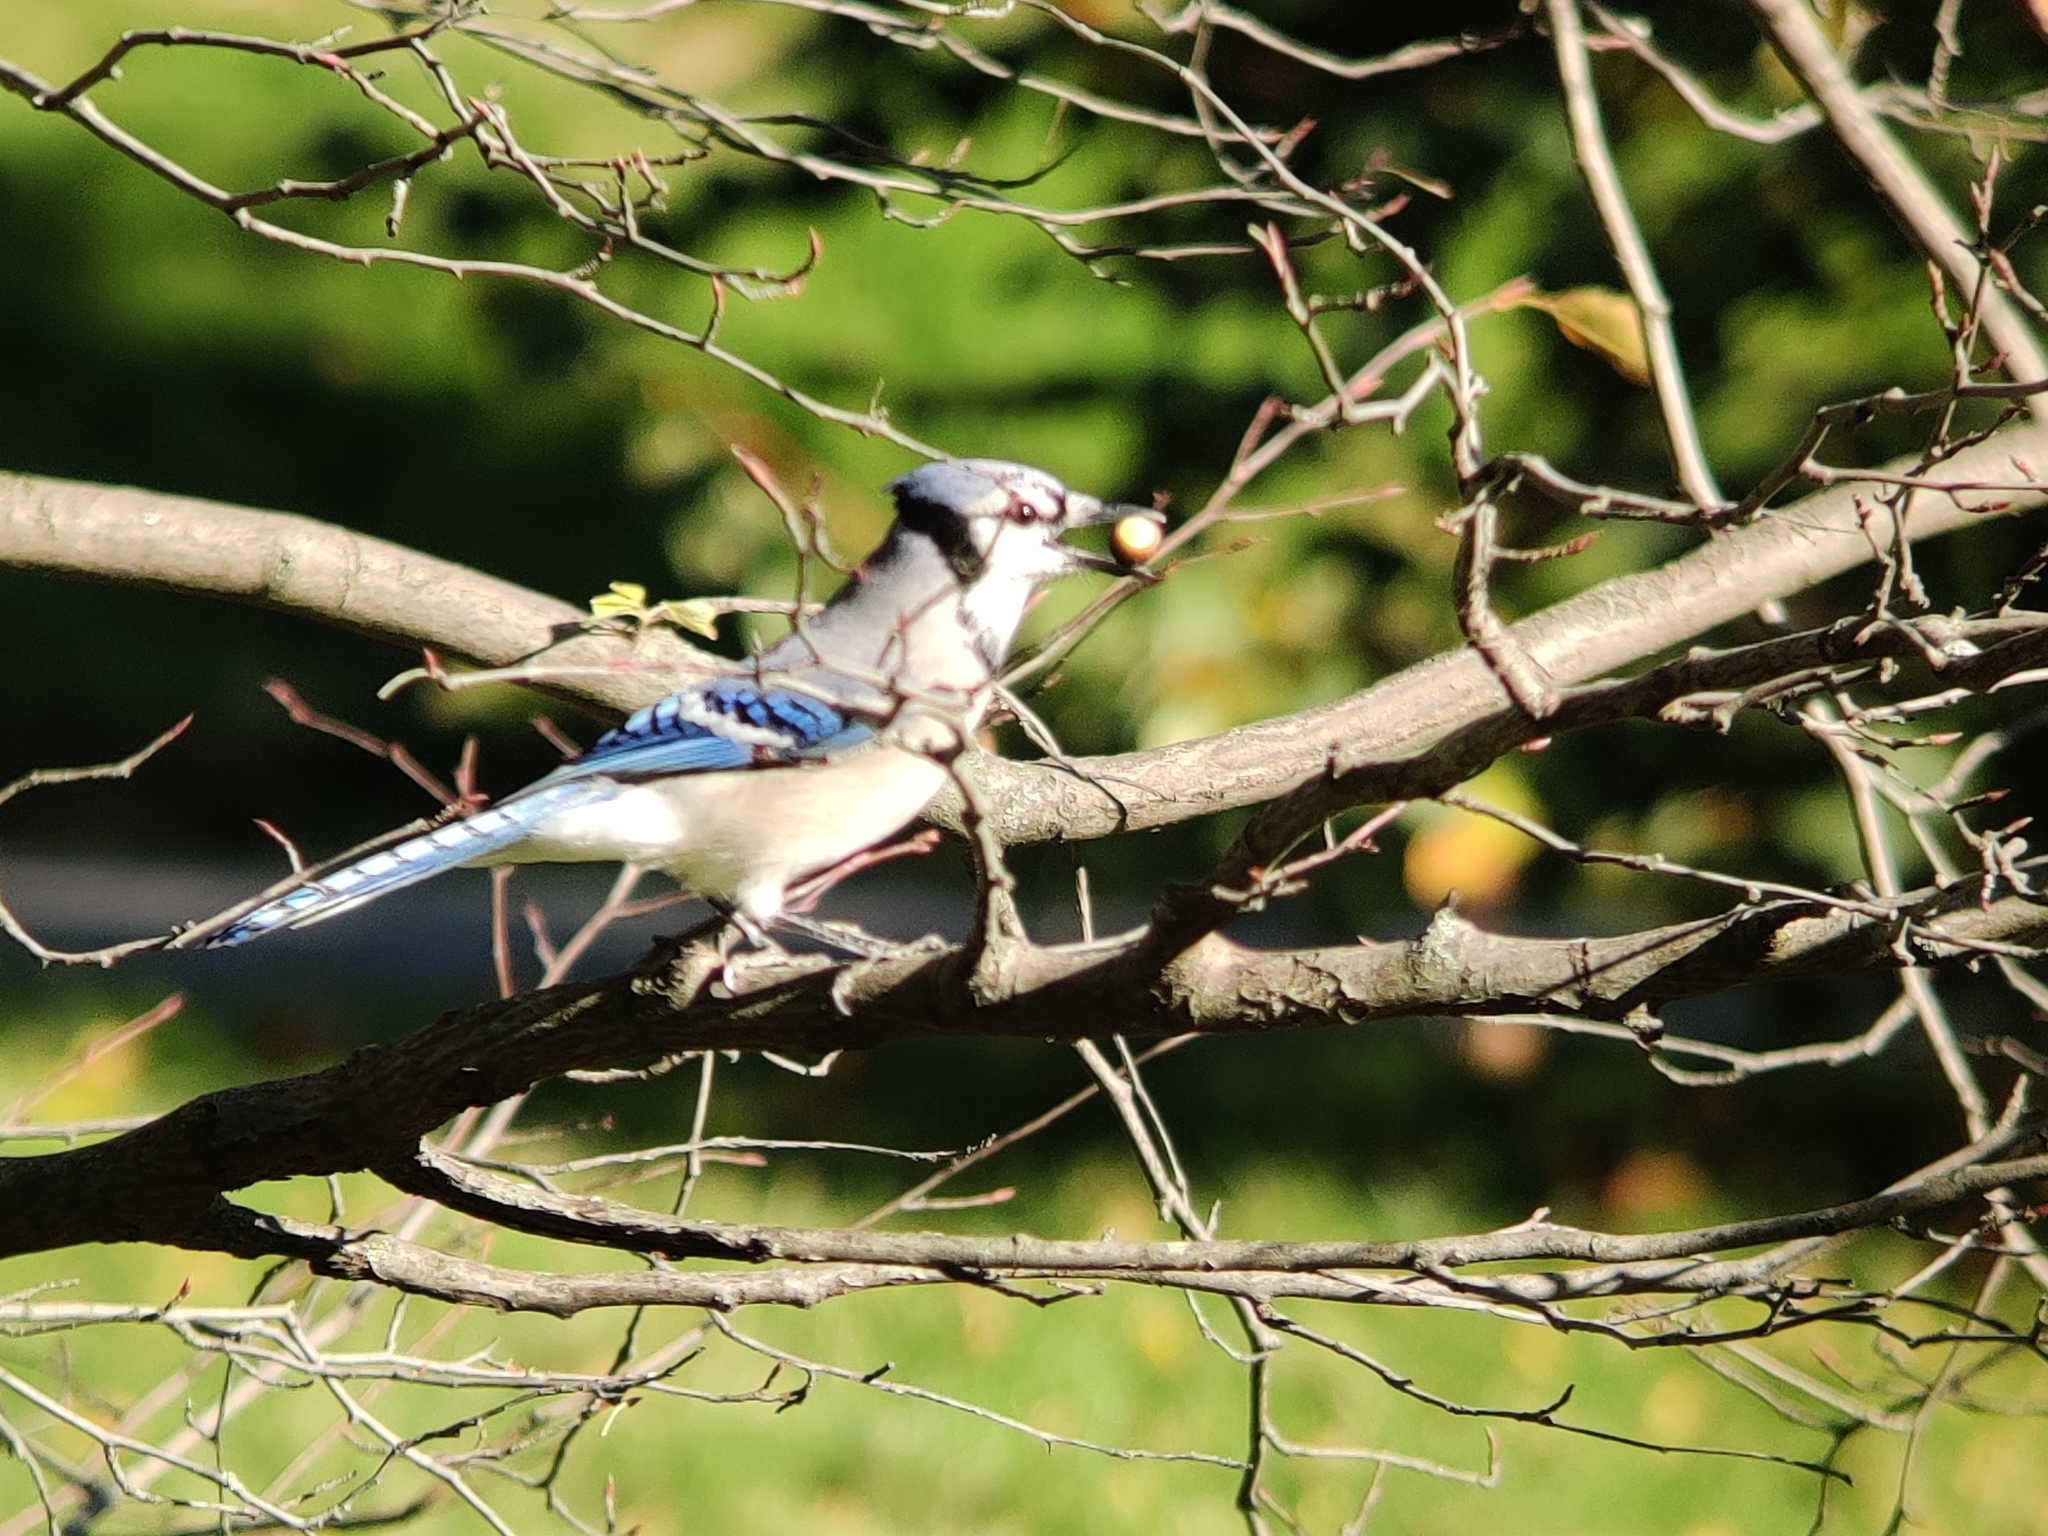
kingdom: Animalia
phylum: Chordata
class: Aves
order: Passeriformes
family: Corvidae
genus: Cyanocitta
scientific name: Cyanocitta cristata
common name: Blue jay
